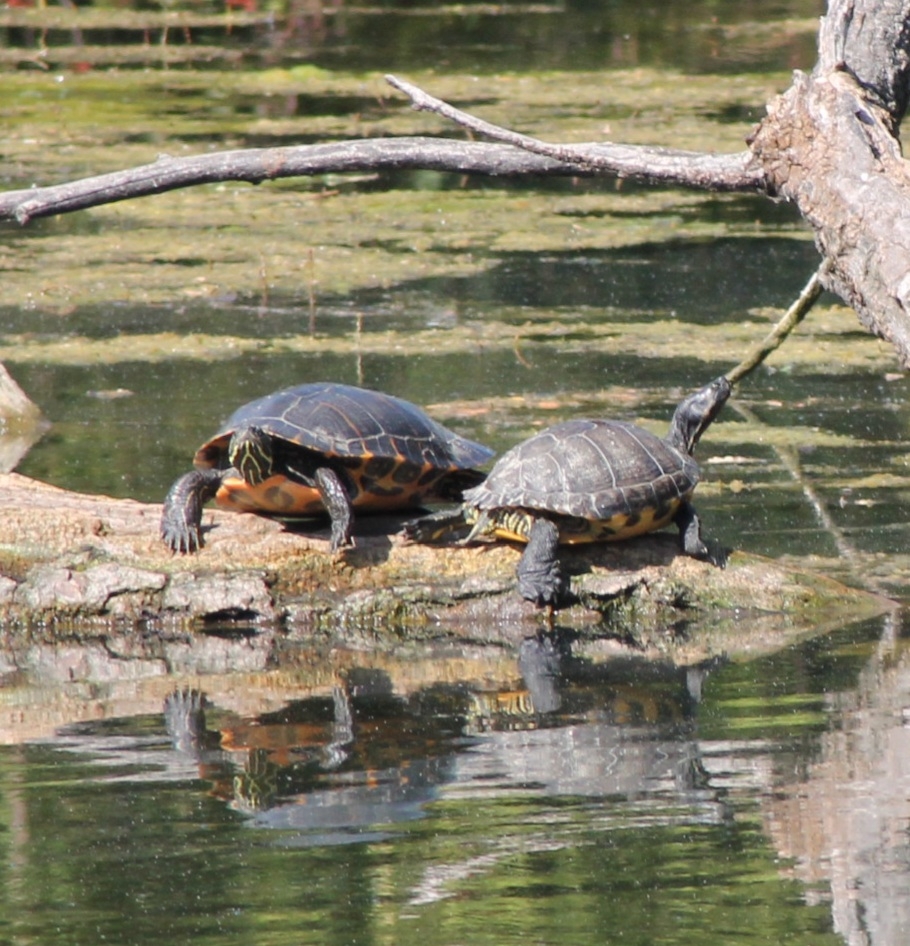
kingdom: Animalia
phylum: Chordata
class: Testudines
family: Emydidae
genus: Pseudemys
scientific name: Pseudemys concinna
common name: Eastern river cooter
